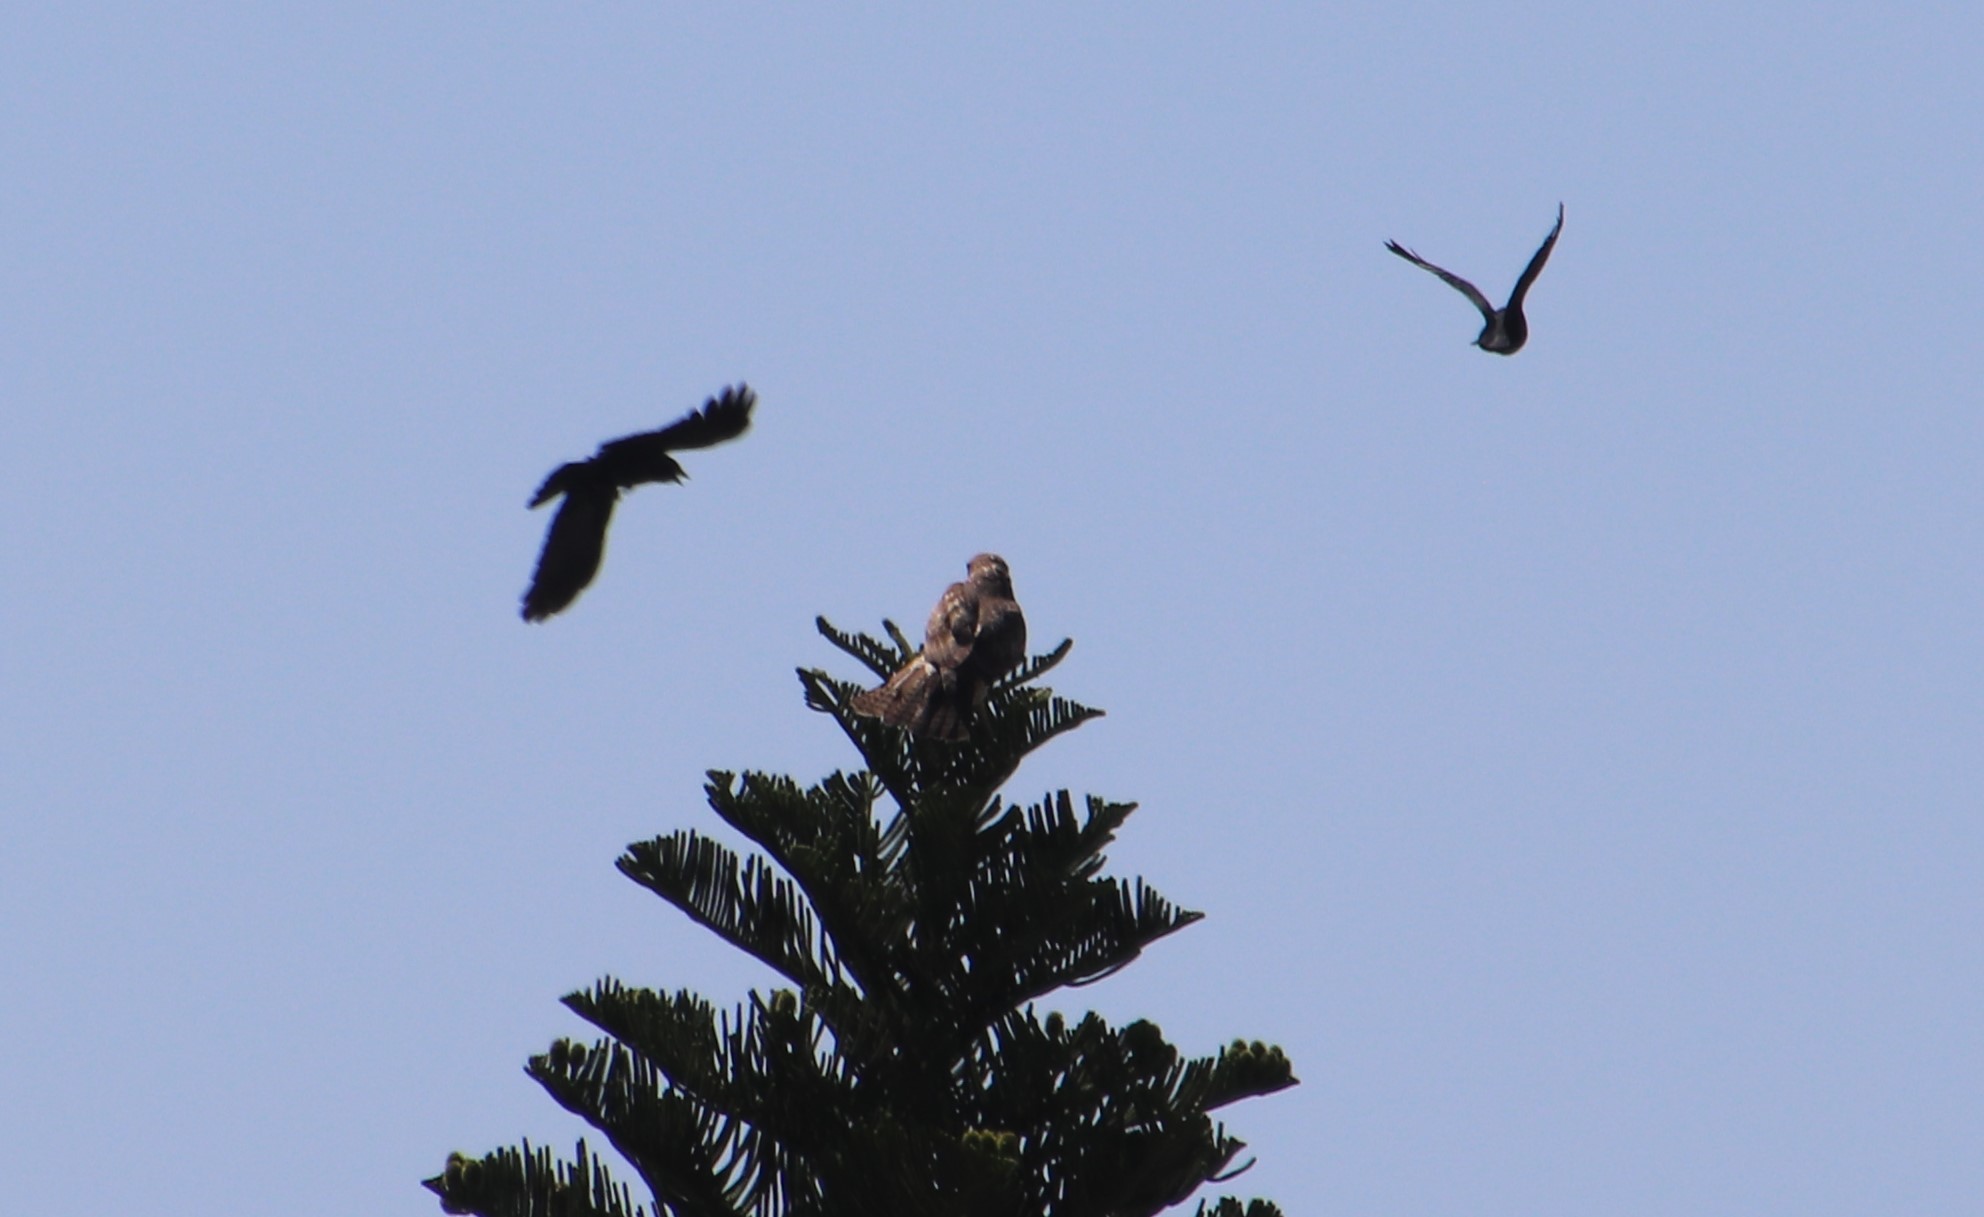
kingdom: Animalia
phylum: Chordata
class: Aves
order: Accipitriformes
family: Accipitridae
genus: Buteo
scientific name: Buteo jamaicensis
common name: Red-tailed hawk
